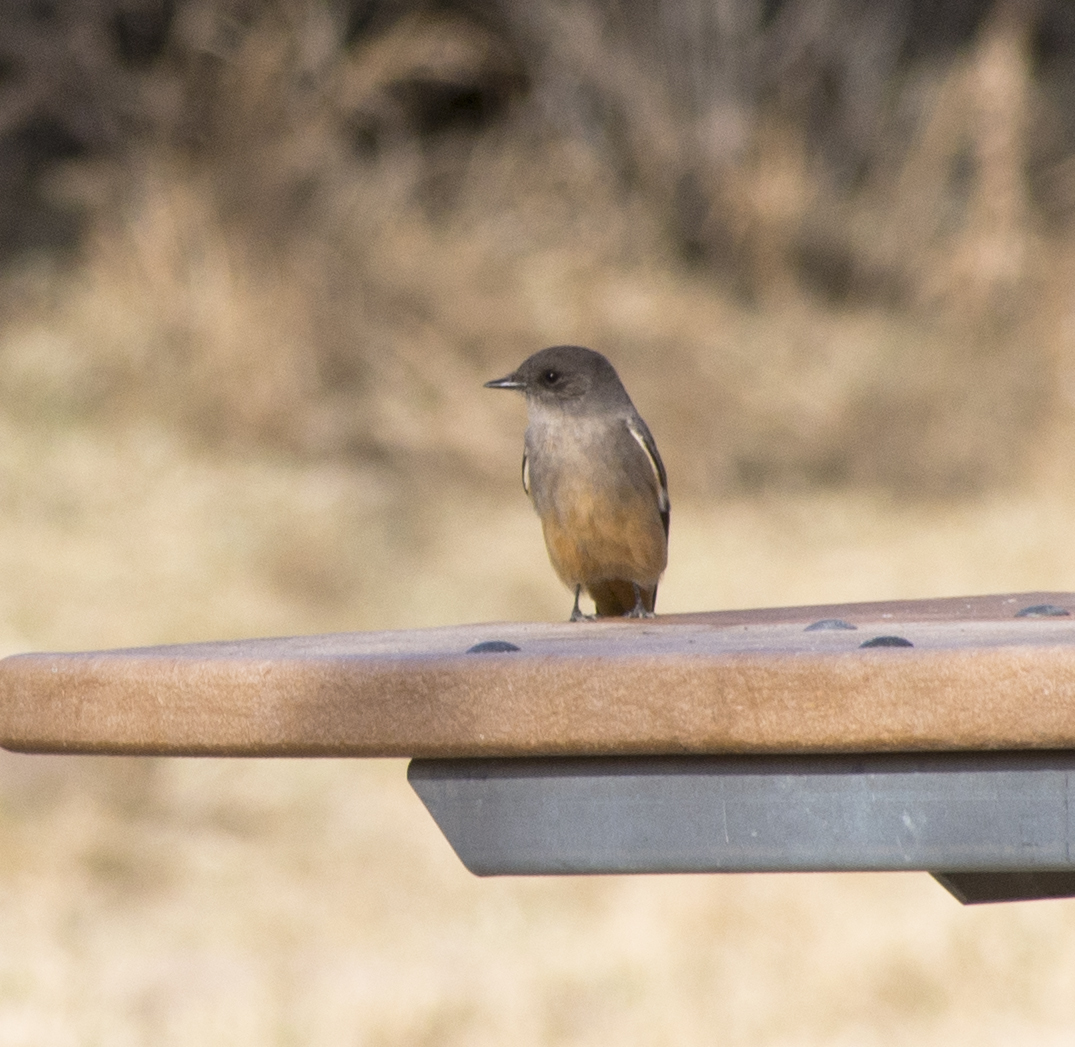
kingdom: Animalia
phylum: Chordata
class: Aves
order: Passeriformes
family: Tyrannidae
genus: Sayornis
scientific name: Sayornis saya
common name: Say's phoebe
